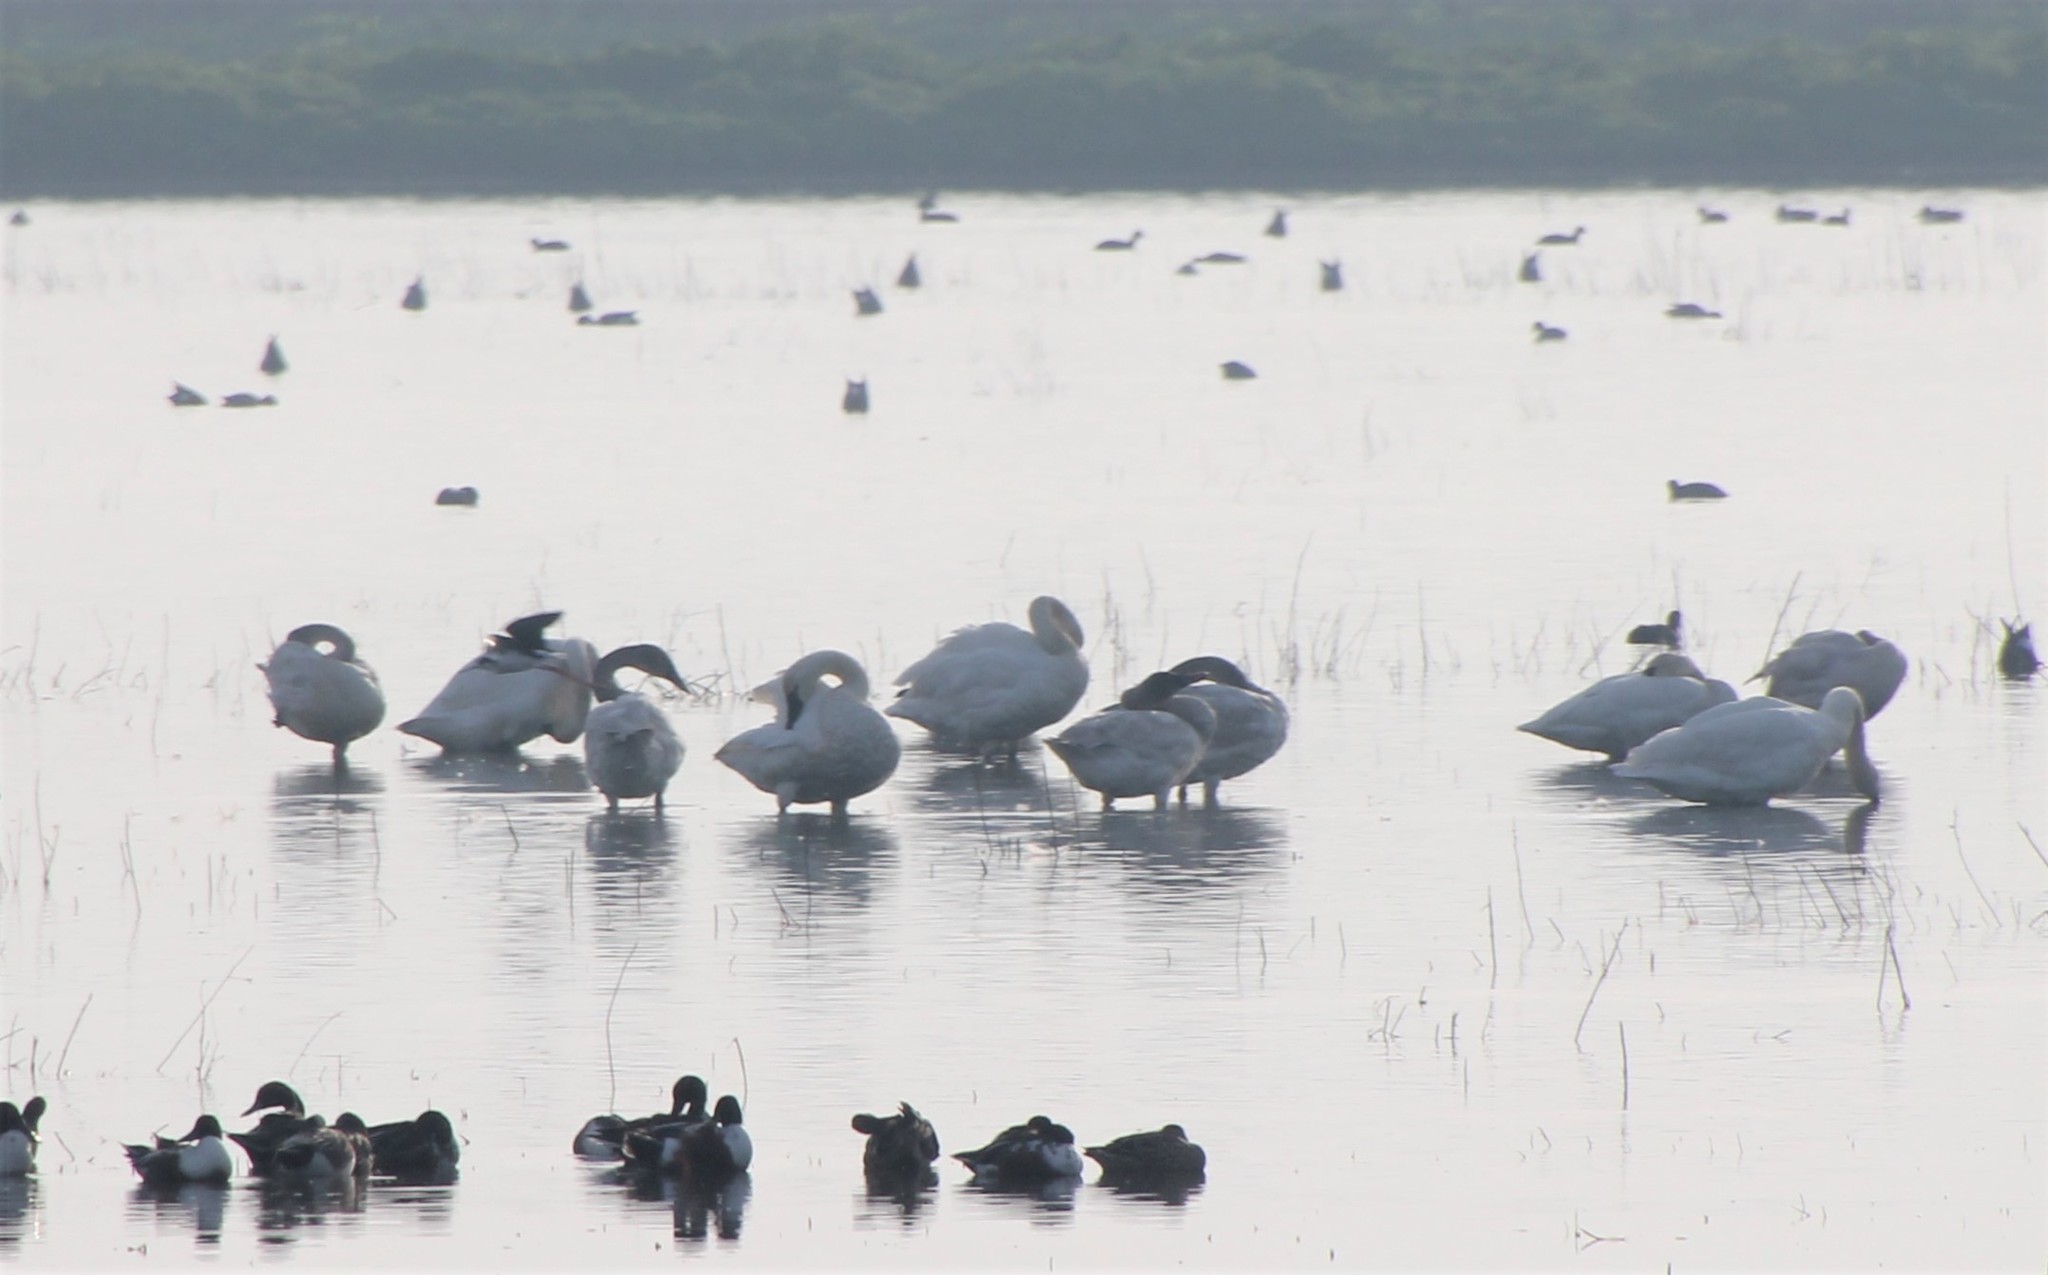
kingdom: Animalia
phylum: Chordata
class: Aves
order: Anseriformes
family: Anatidae
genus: Cygnus
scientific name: Cygnus columbianus
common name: Tundra swan
